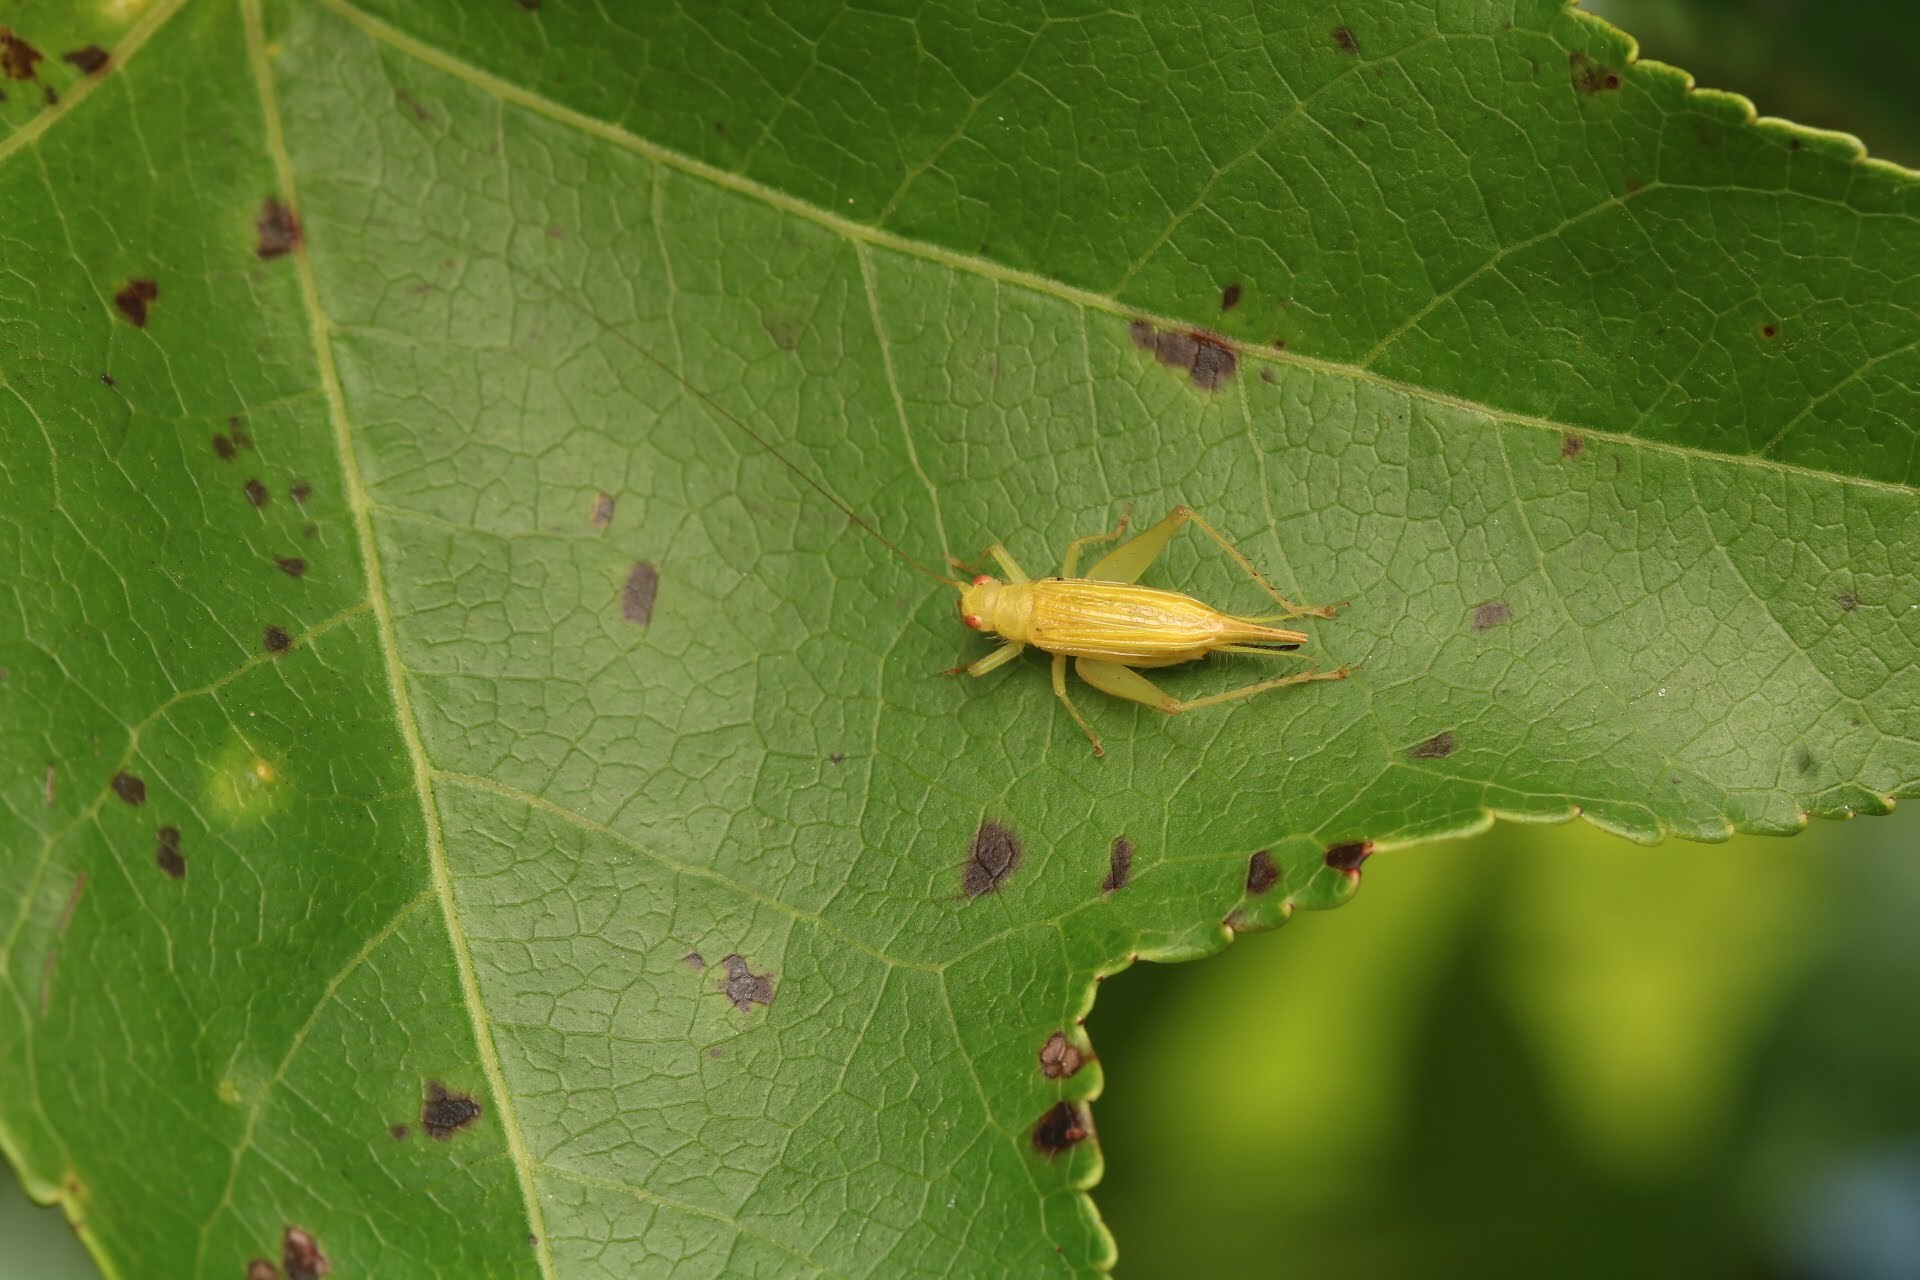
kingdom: Animalia
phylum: Arthropoda
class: Insecta
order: Orthoptera
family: Trigonidiidae
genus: Cyrtoxipha
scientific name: Cyrtoxipha columbiana
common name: Columbian trig
